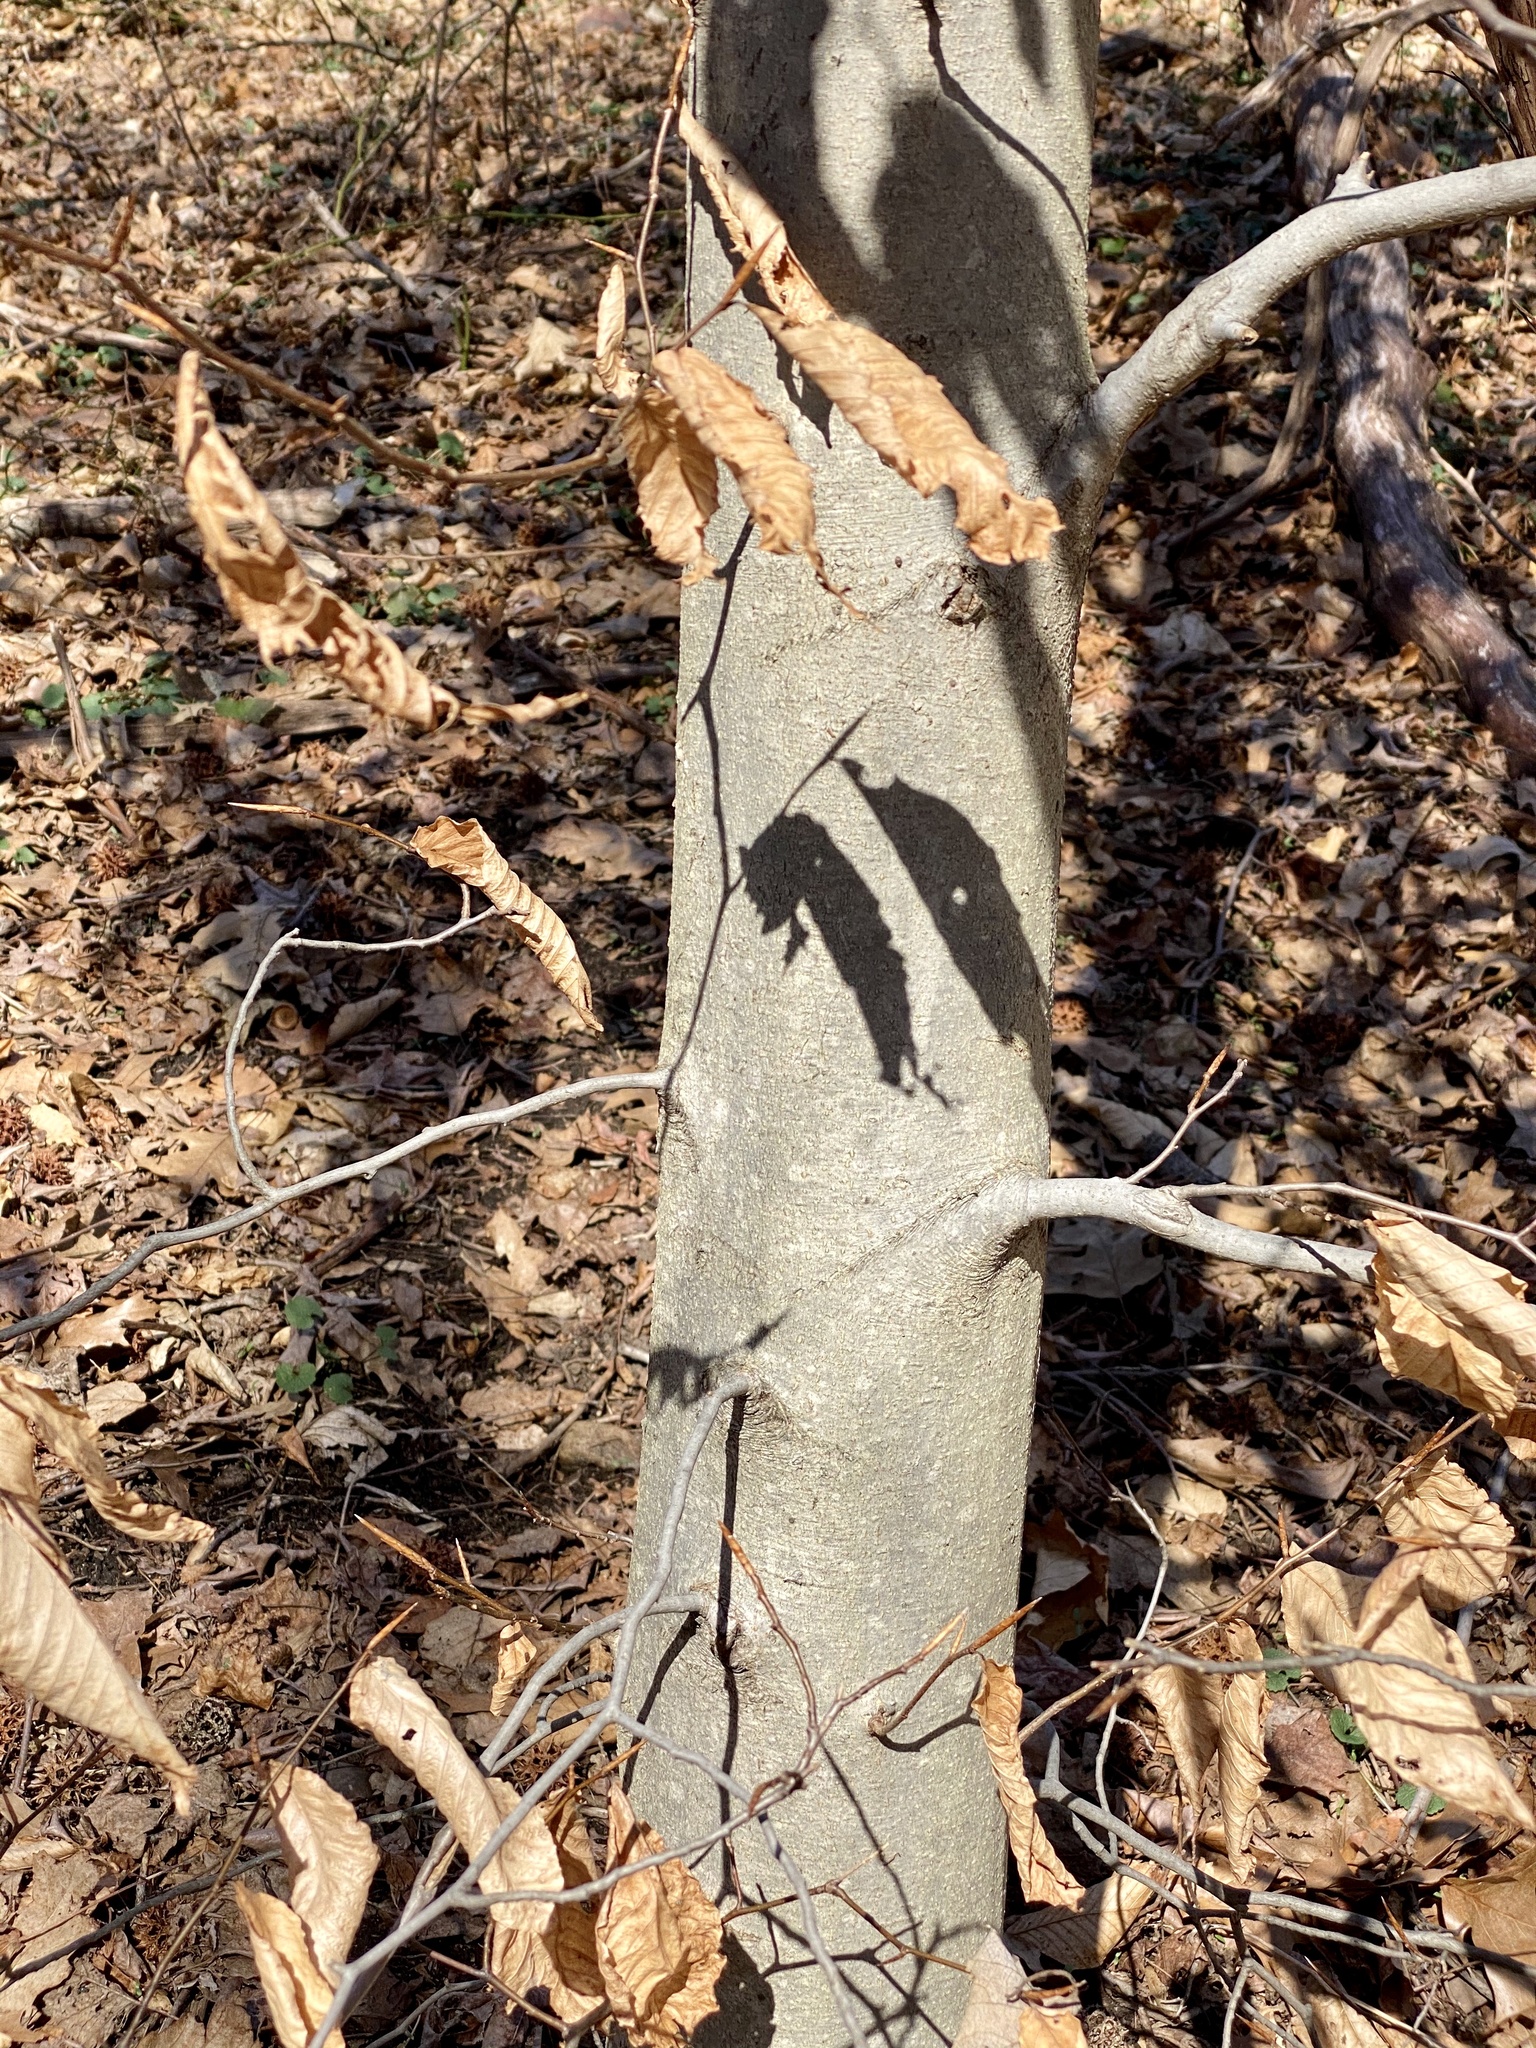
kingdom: Plantae
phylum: Tracheophyta
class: Magnoliopsida
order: Fagales
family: Fagaceae
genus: Fagus
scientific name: Fagus grandifolia
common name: American beech
